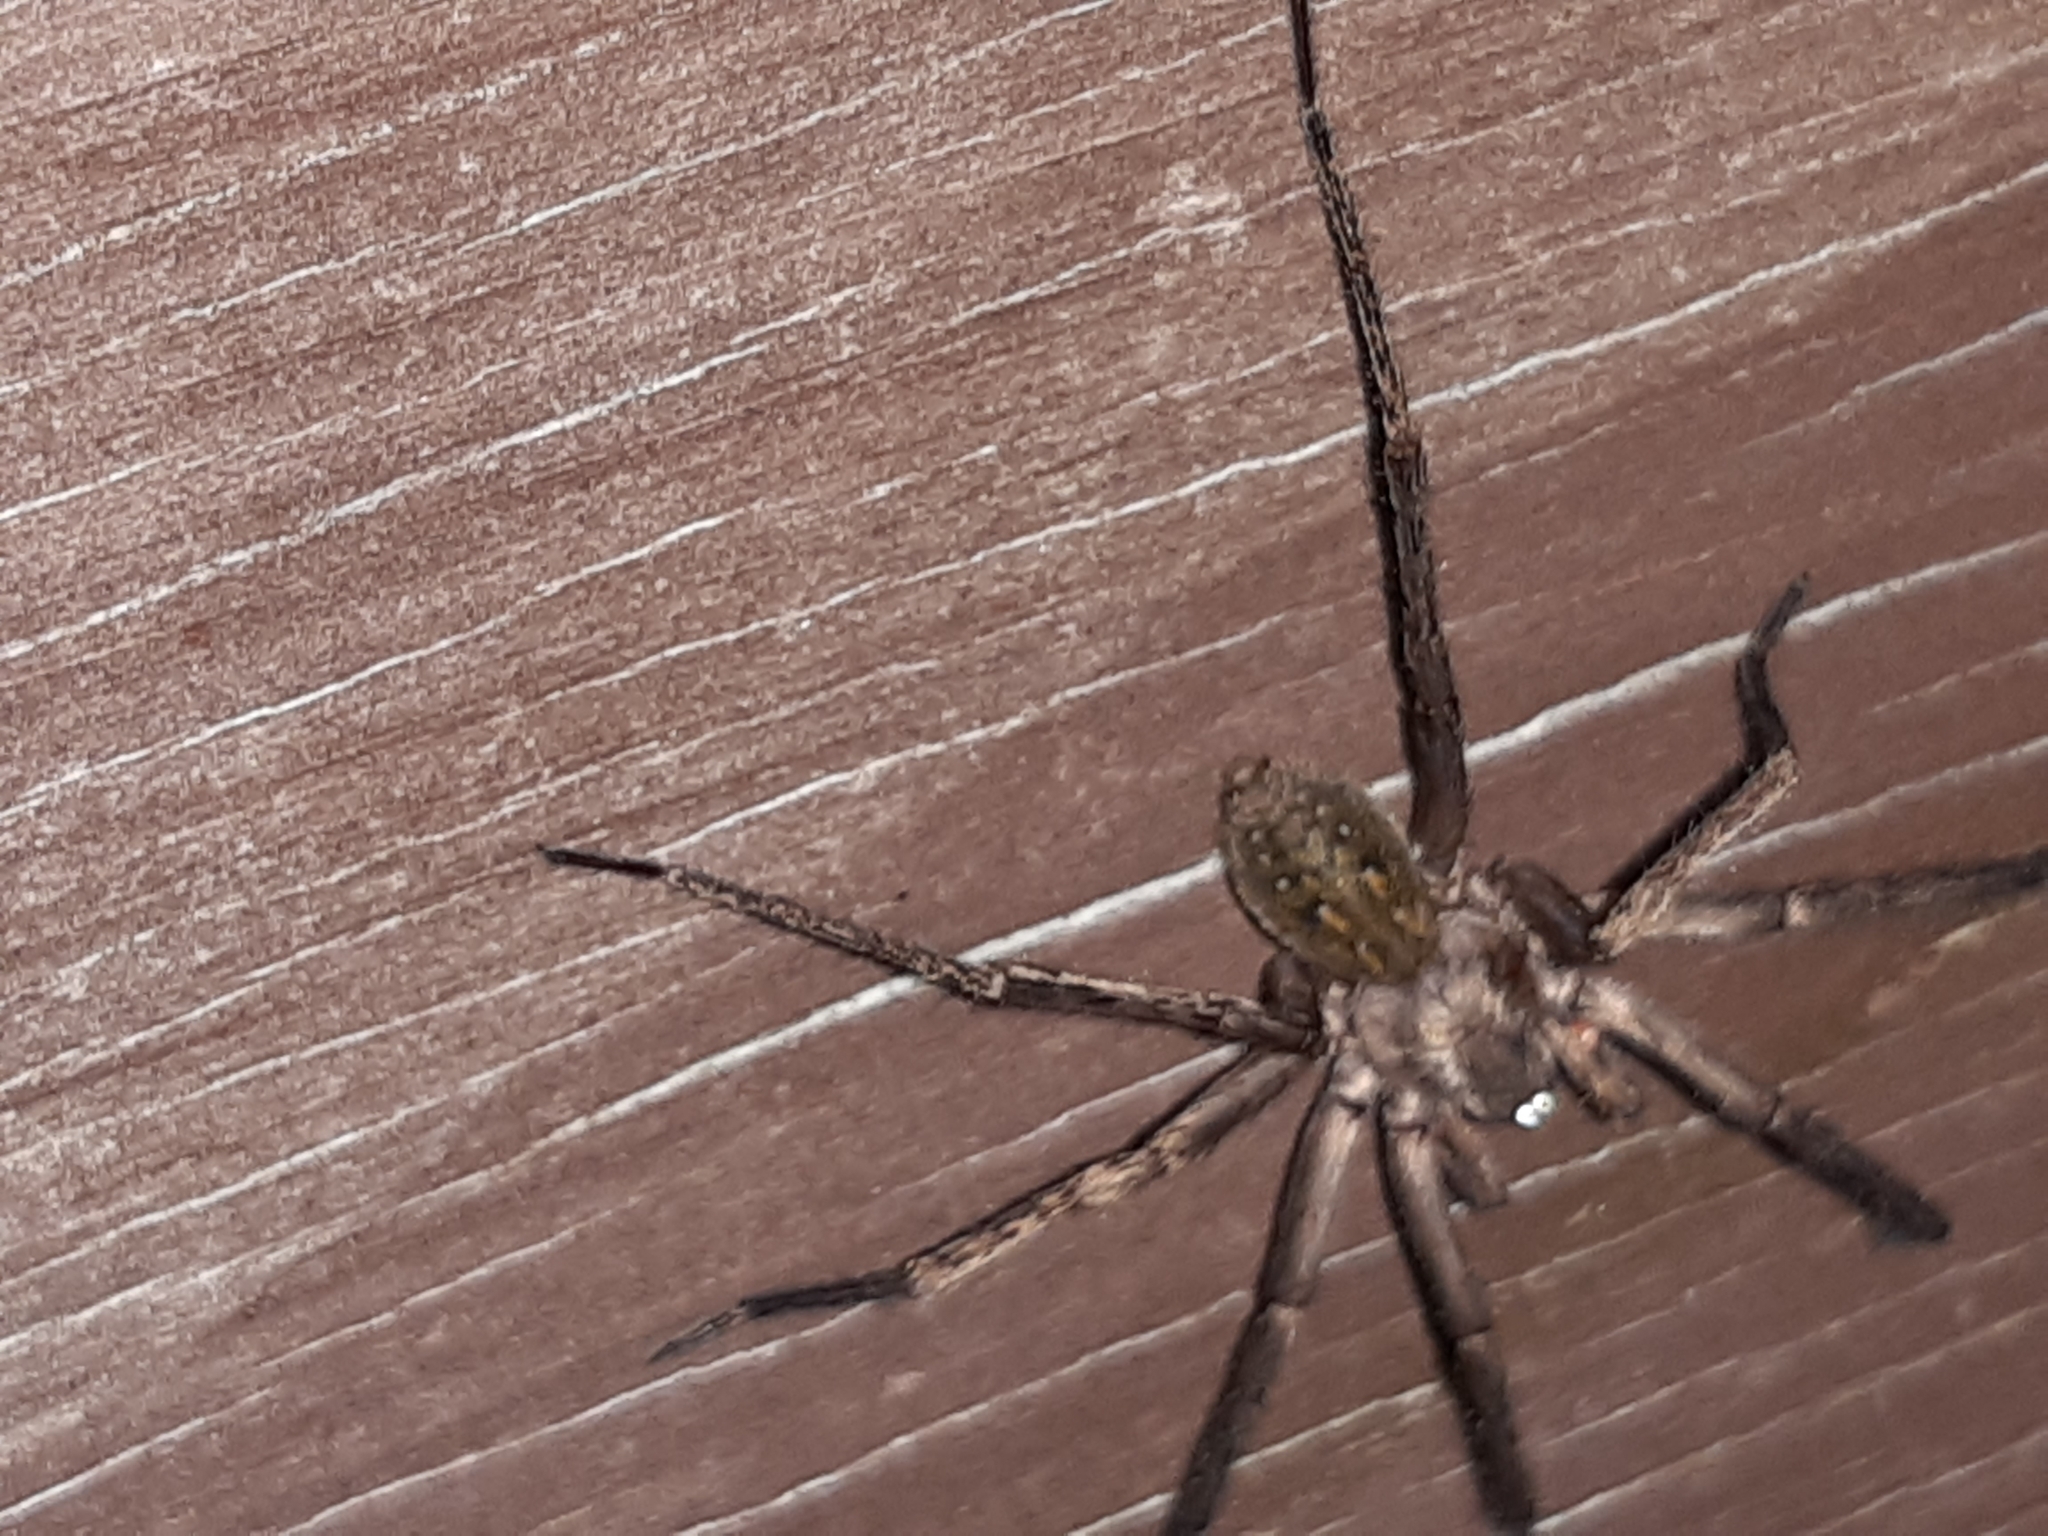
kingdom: Animalia
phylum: Arthropoda
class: Arachnida
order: Araneae
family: Zoropsidae
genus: Uliodon
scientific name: Uliodon albopunctatus
